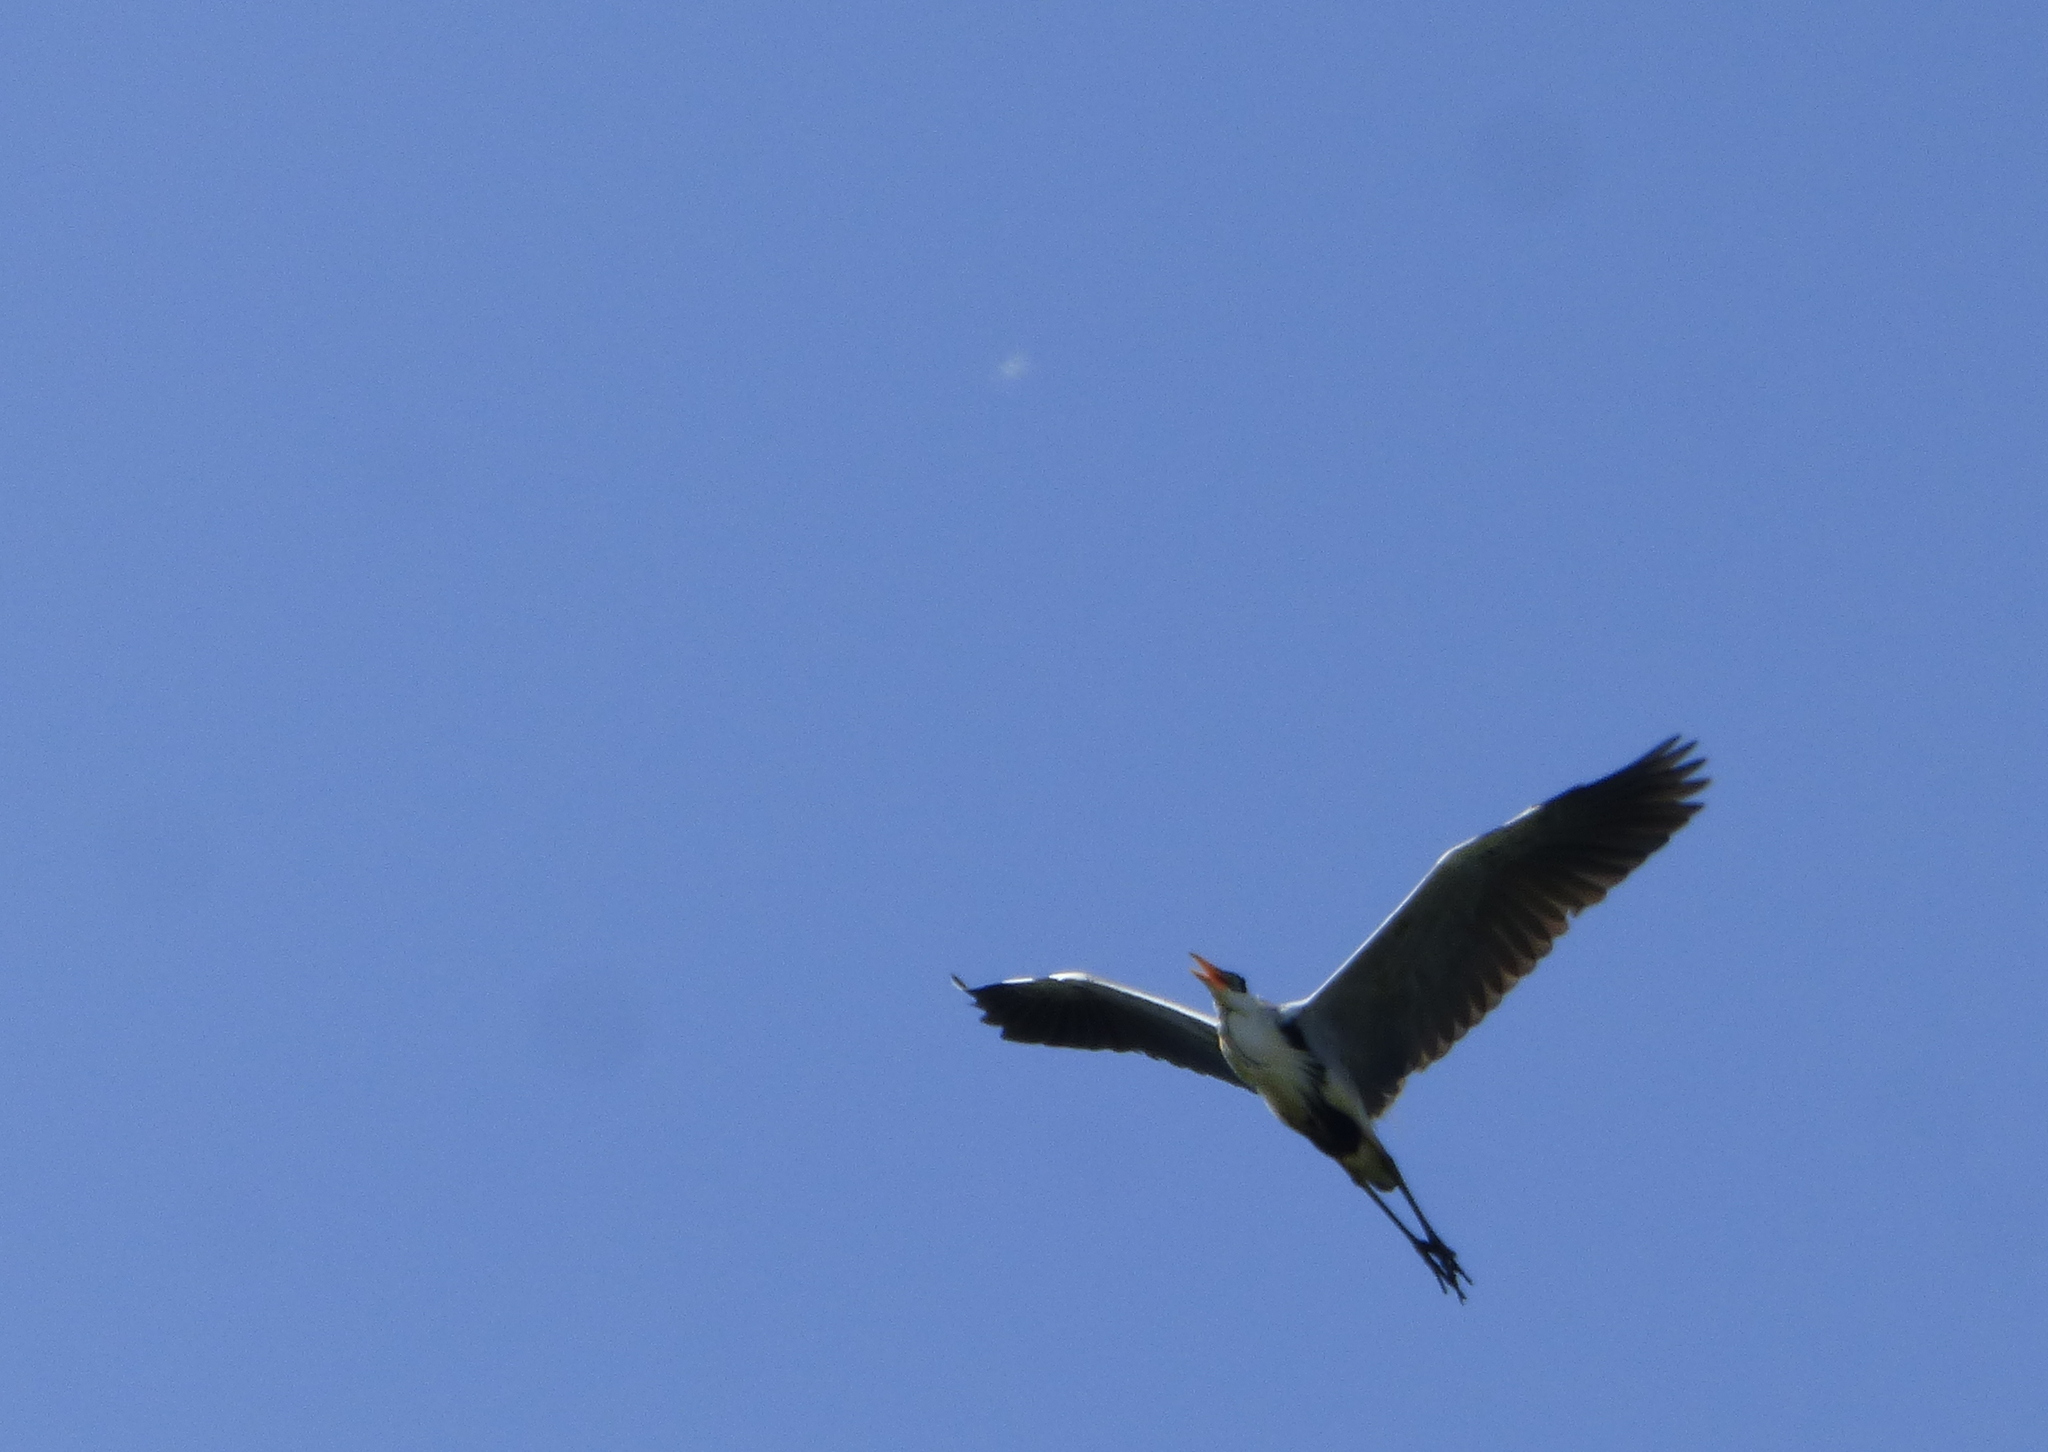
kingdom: Animalia
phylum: Chordata
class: Aves
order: Pelecaniformes
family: Ardeidae
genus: Ardea
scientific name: Ardea cocoi
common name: Cocoi heron
